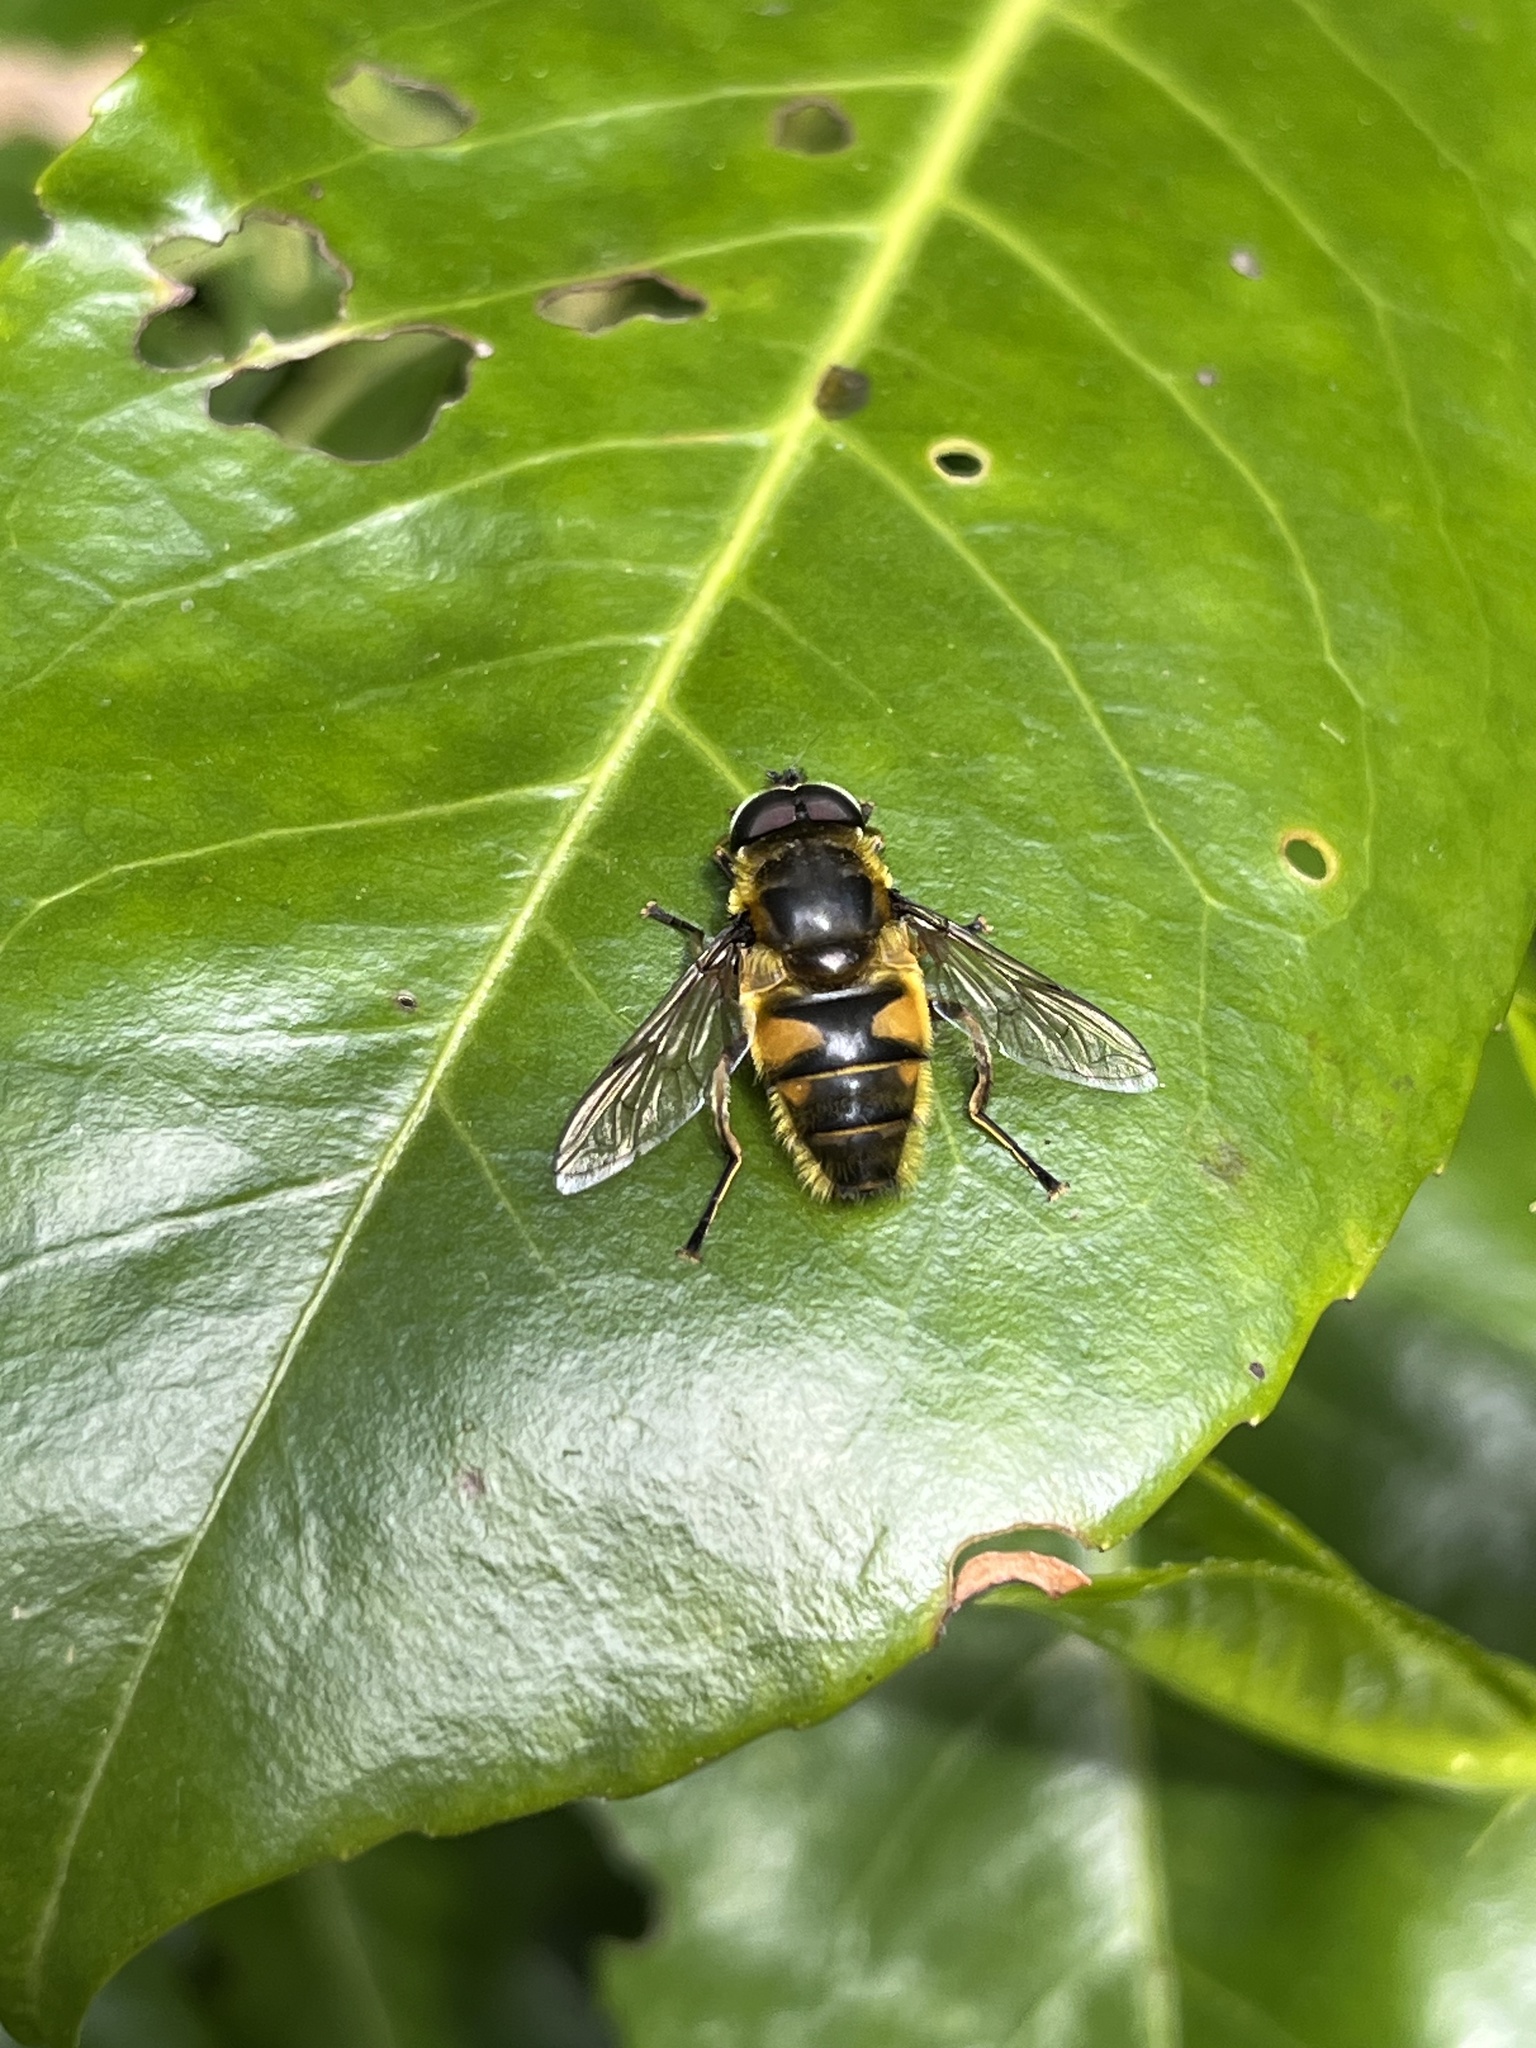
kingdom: Animalia
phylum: Arthropoda
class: Insecta
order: Diptera
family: Syrphidae
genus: Myathropa
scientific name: Myathropa florea
